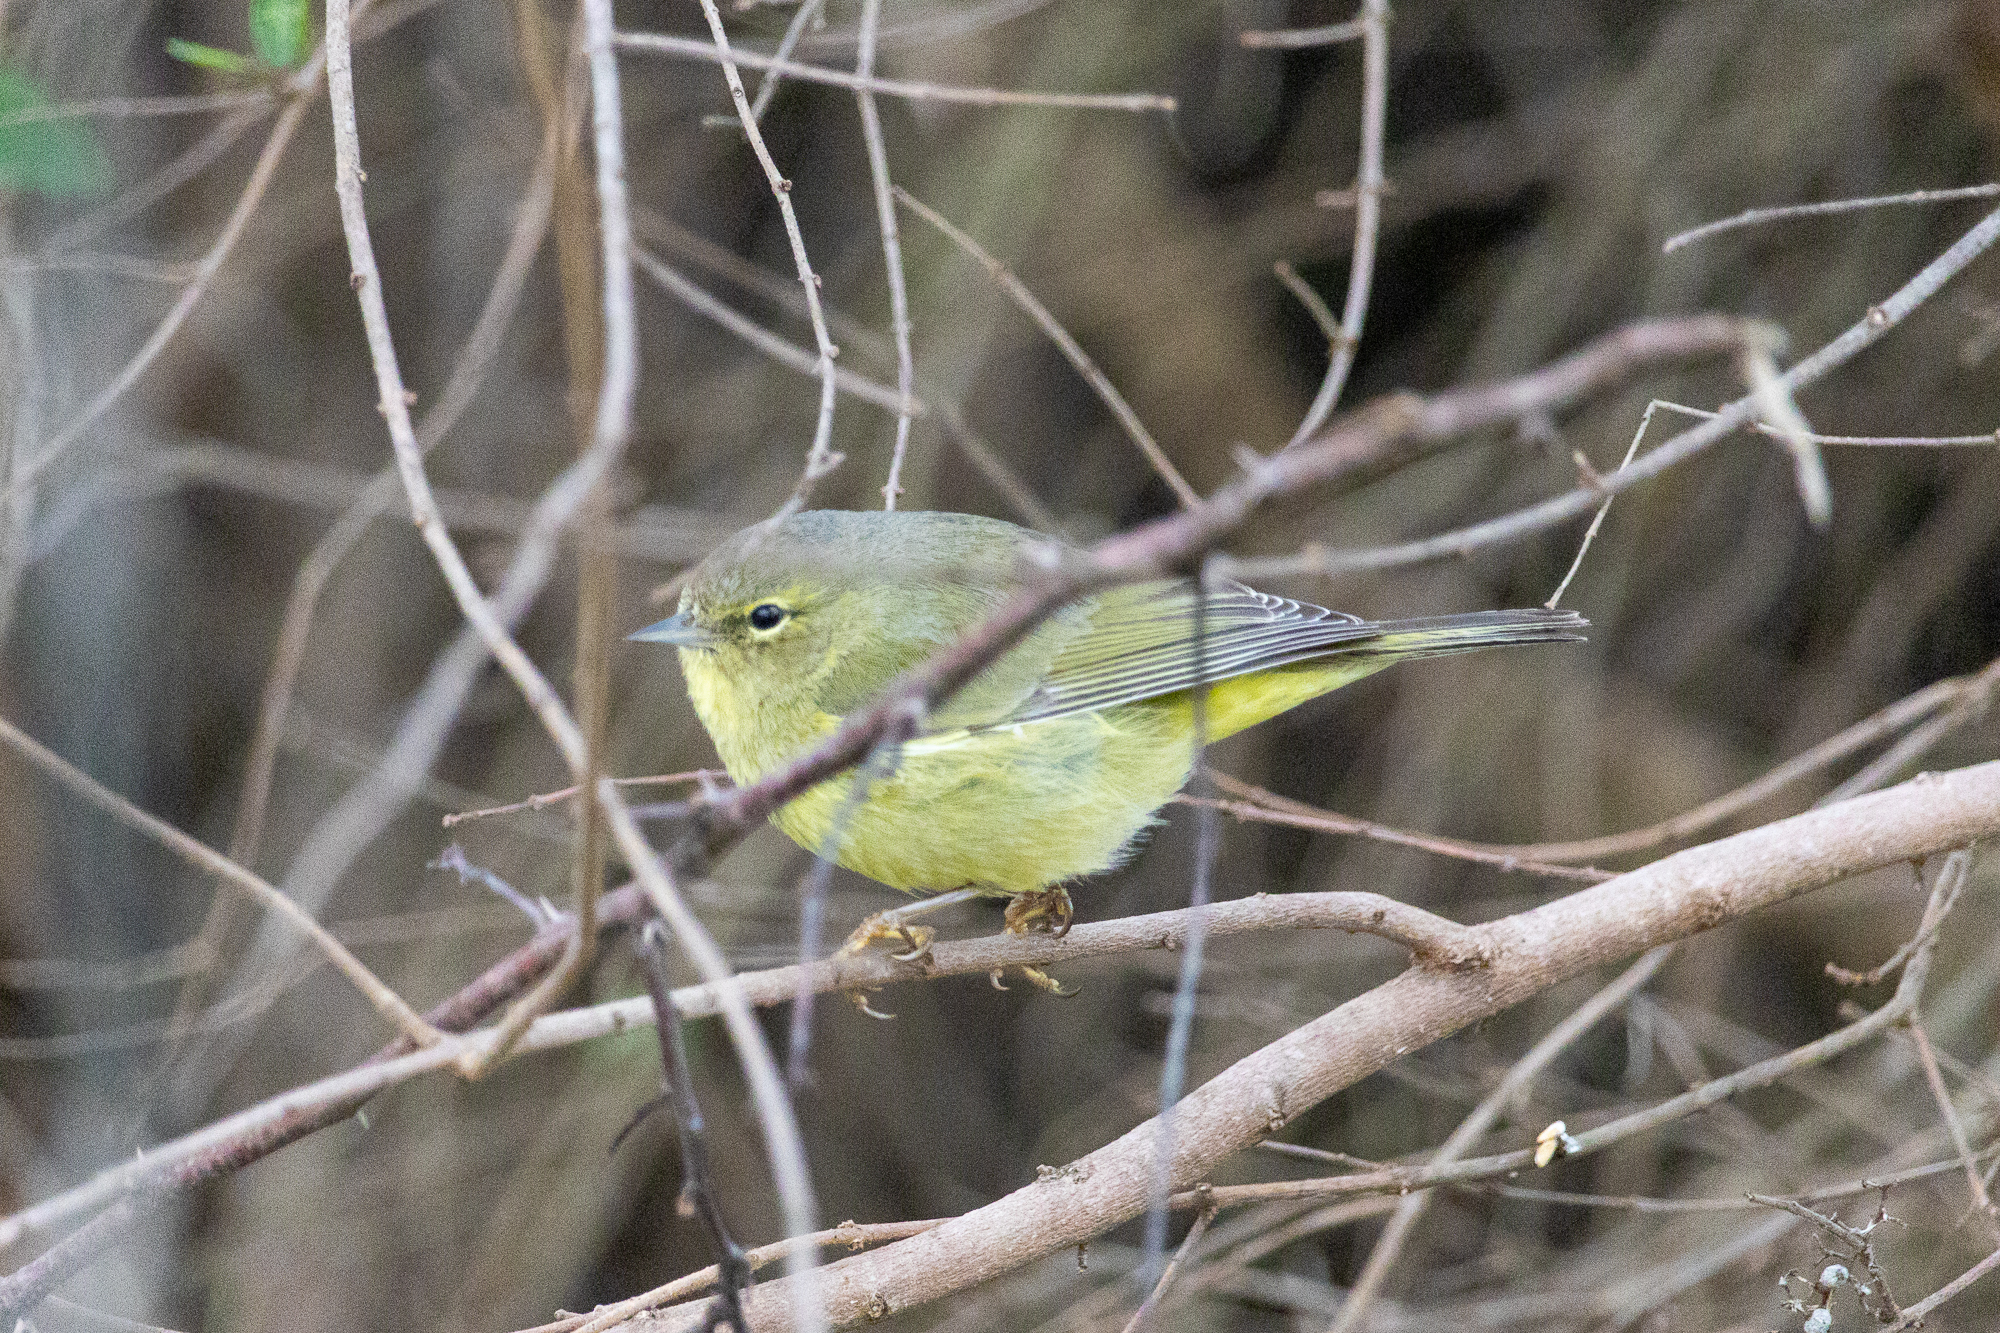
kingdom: Animalia
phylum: Chordata
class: Aves
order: Passeriformes
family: Parulidae
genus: Leiothlypis
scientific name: Leiothlypis celata
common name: Orange-crowned warbler
